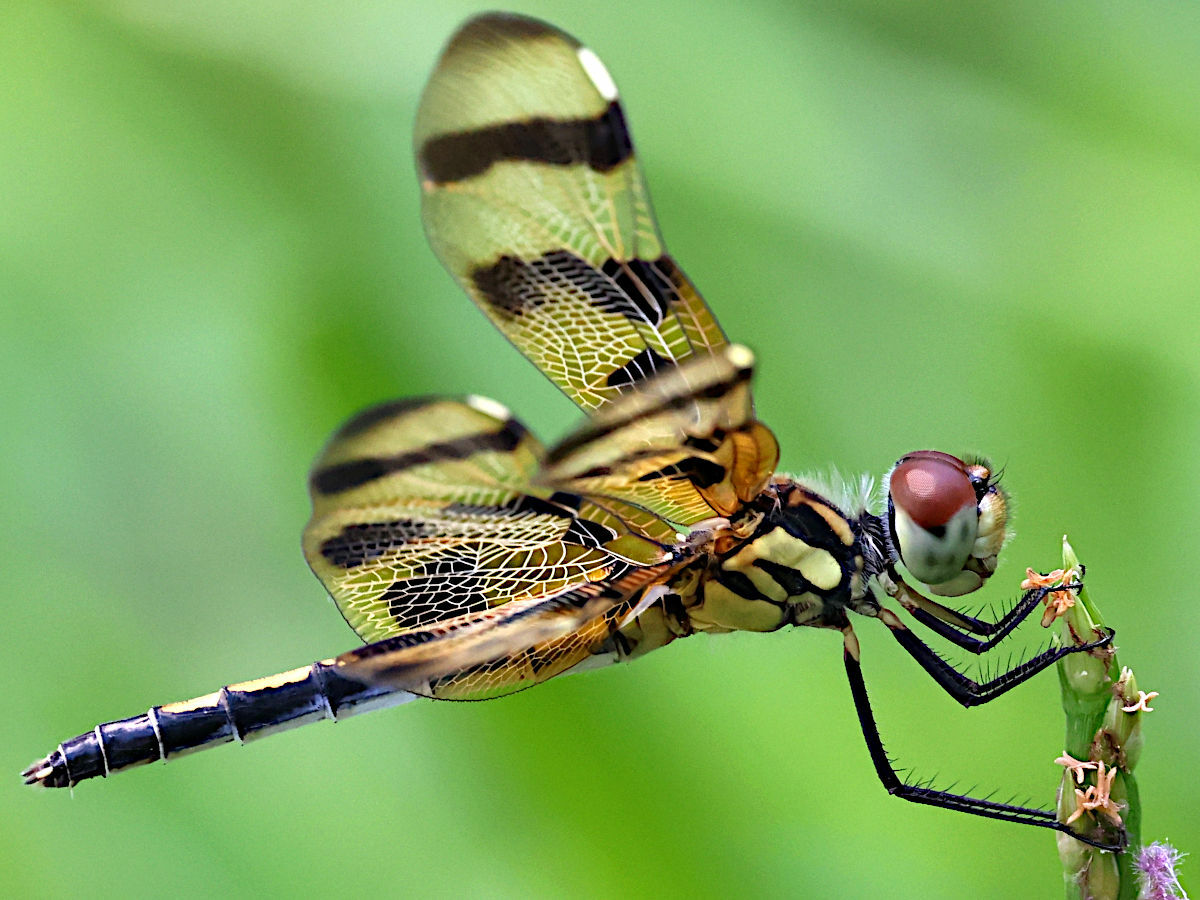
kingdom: Animalia
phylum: Arthropoda
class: Insecta
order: Odonata
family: Libellulidae
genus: Celithemis
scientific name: Celithemis eponina
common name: Halloween pennant
